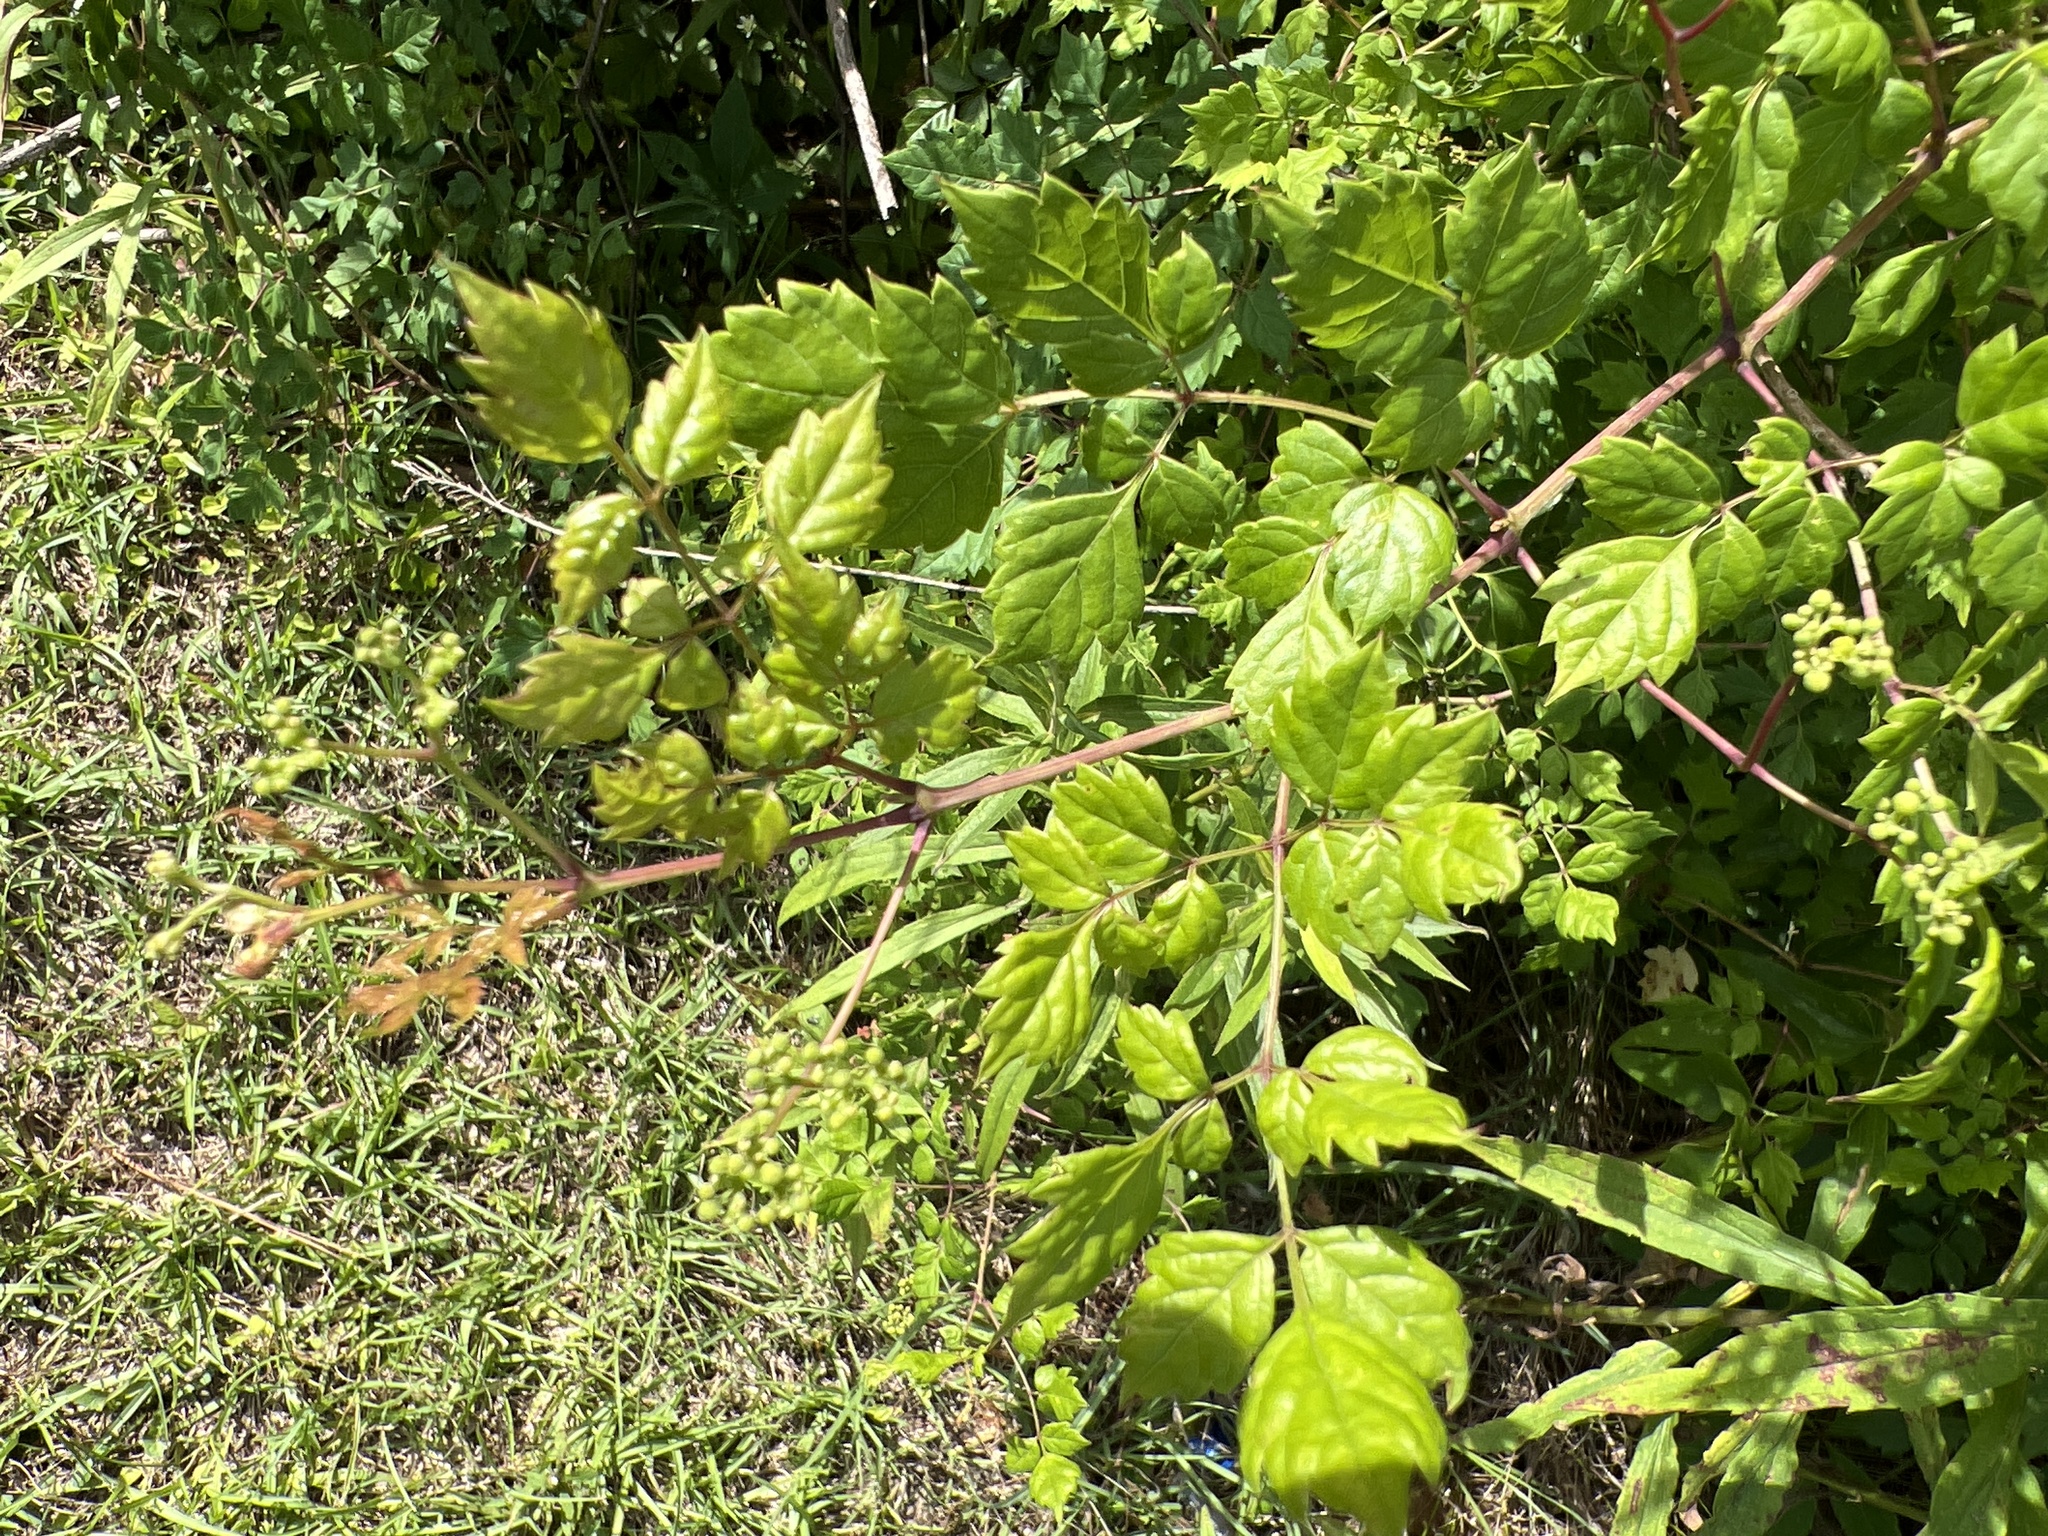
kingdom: Plantae
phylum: Tracheophyta
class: Magnoliopsida
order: Vitales
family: Vitaceae
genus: Nekemias
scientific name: Nekemias arborea
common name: Peppervine
